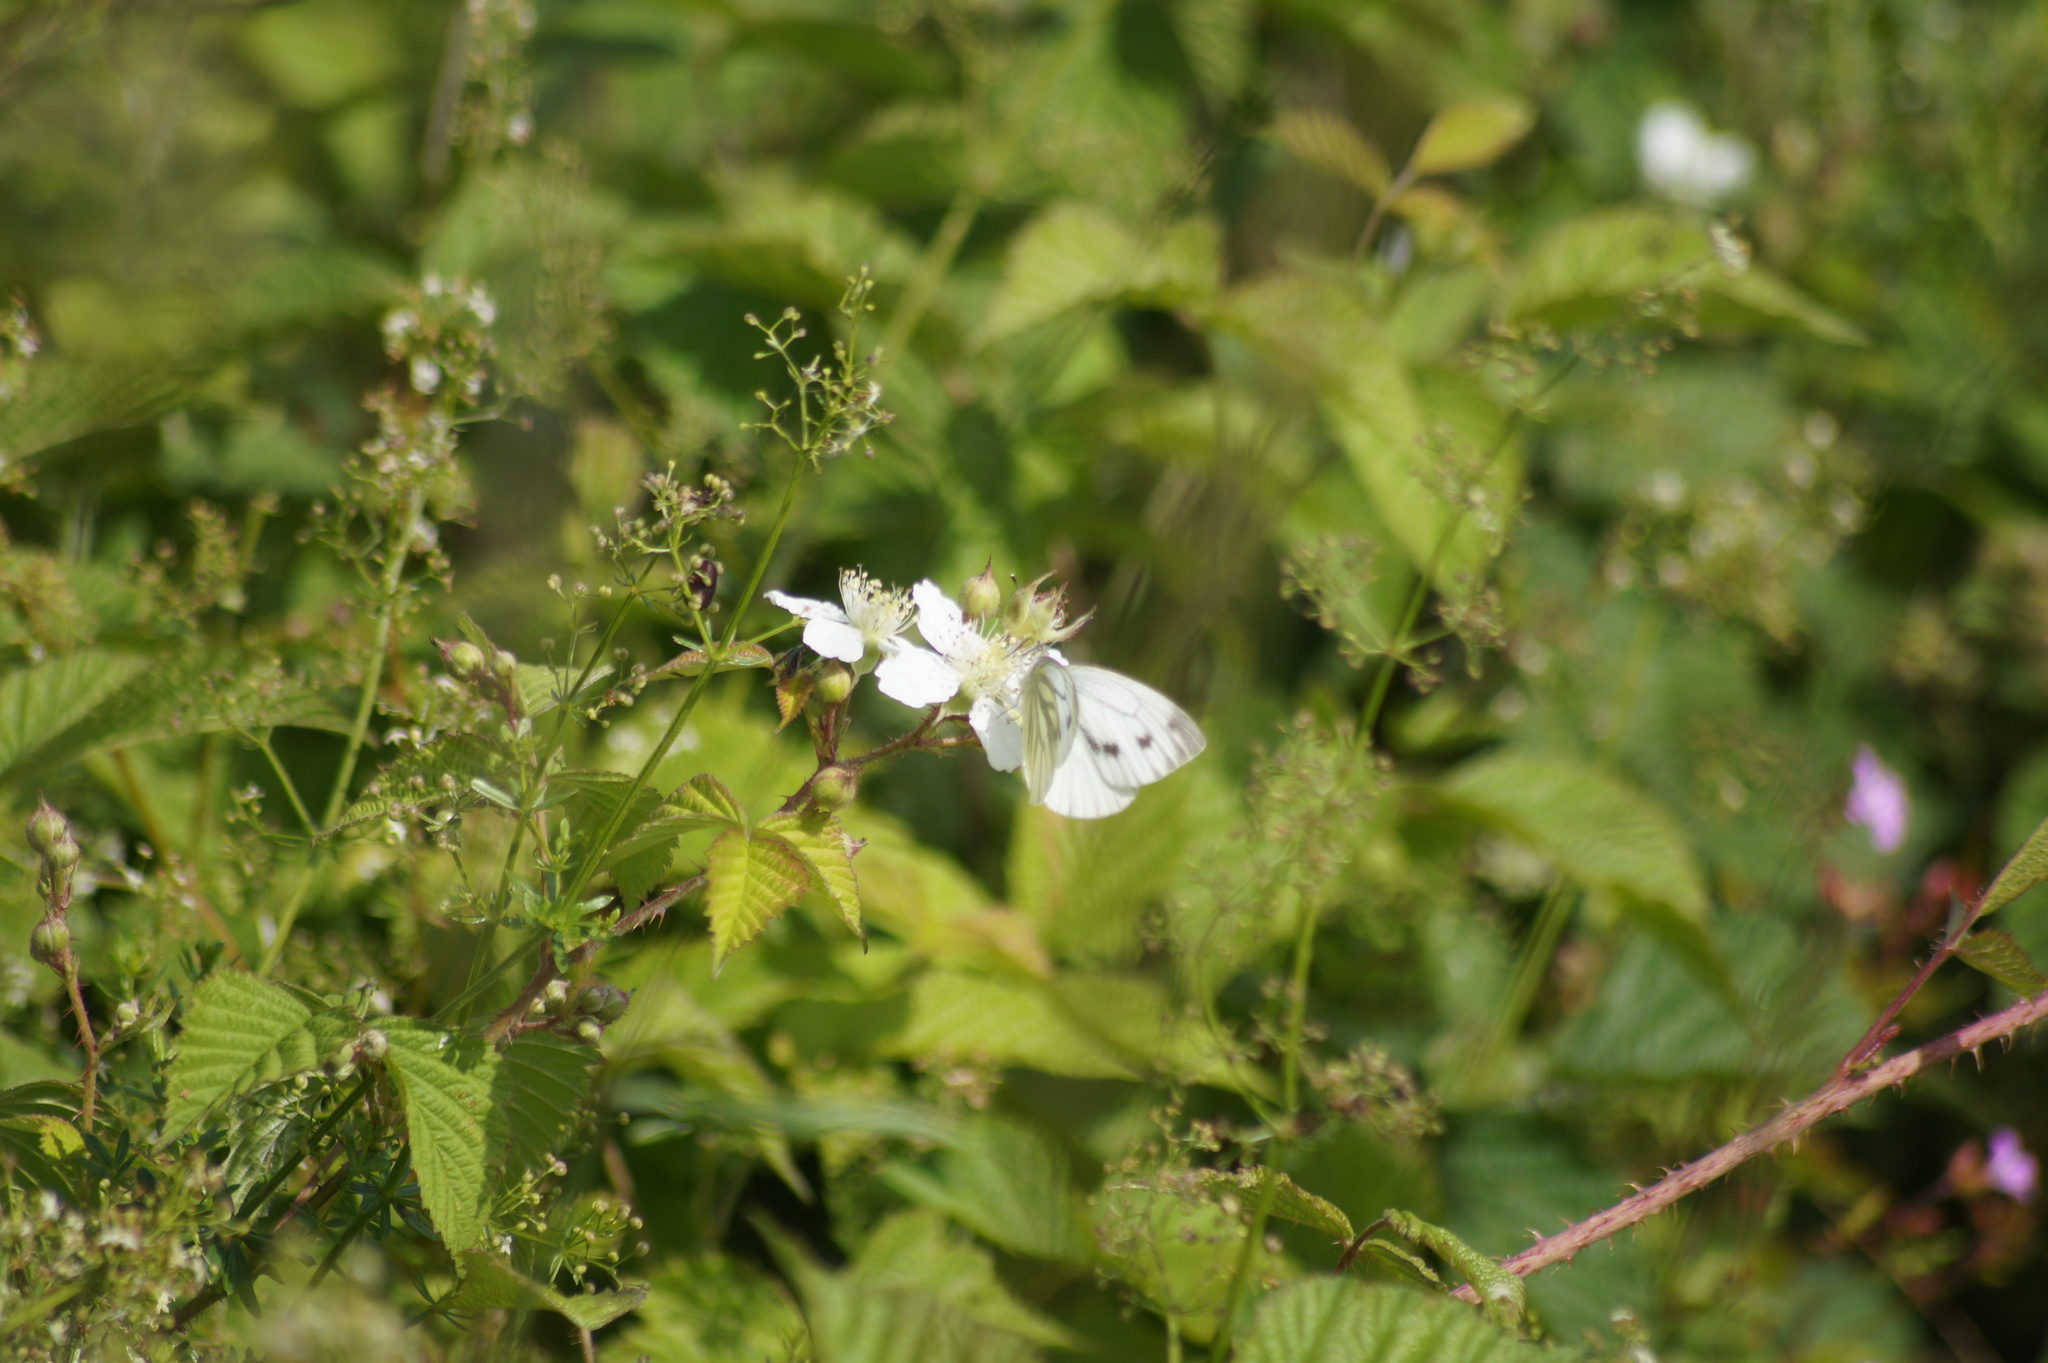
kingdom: Animalia
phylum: Arthropoda
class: Insecta
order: Lepidoptera
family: Pieridae
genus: Pieris
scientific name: Pieris napi
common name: Green-veined white
